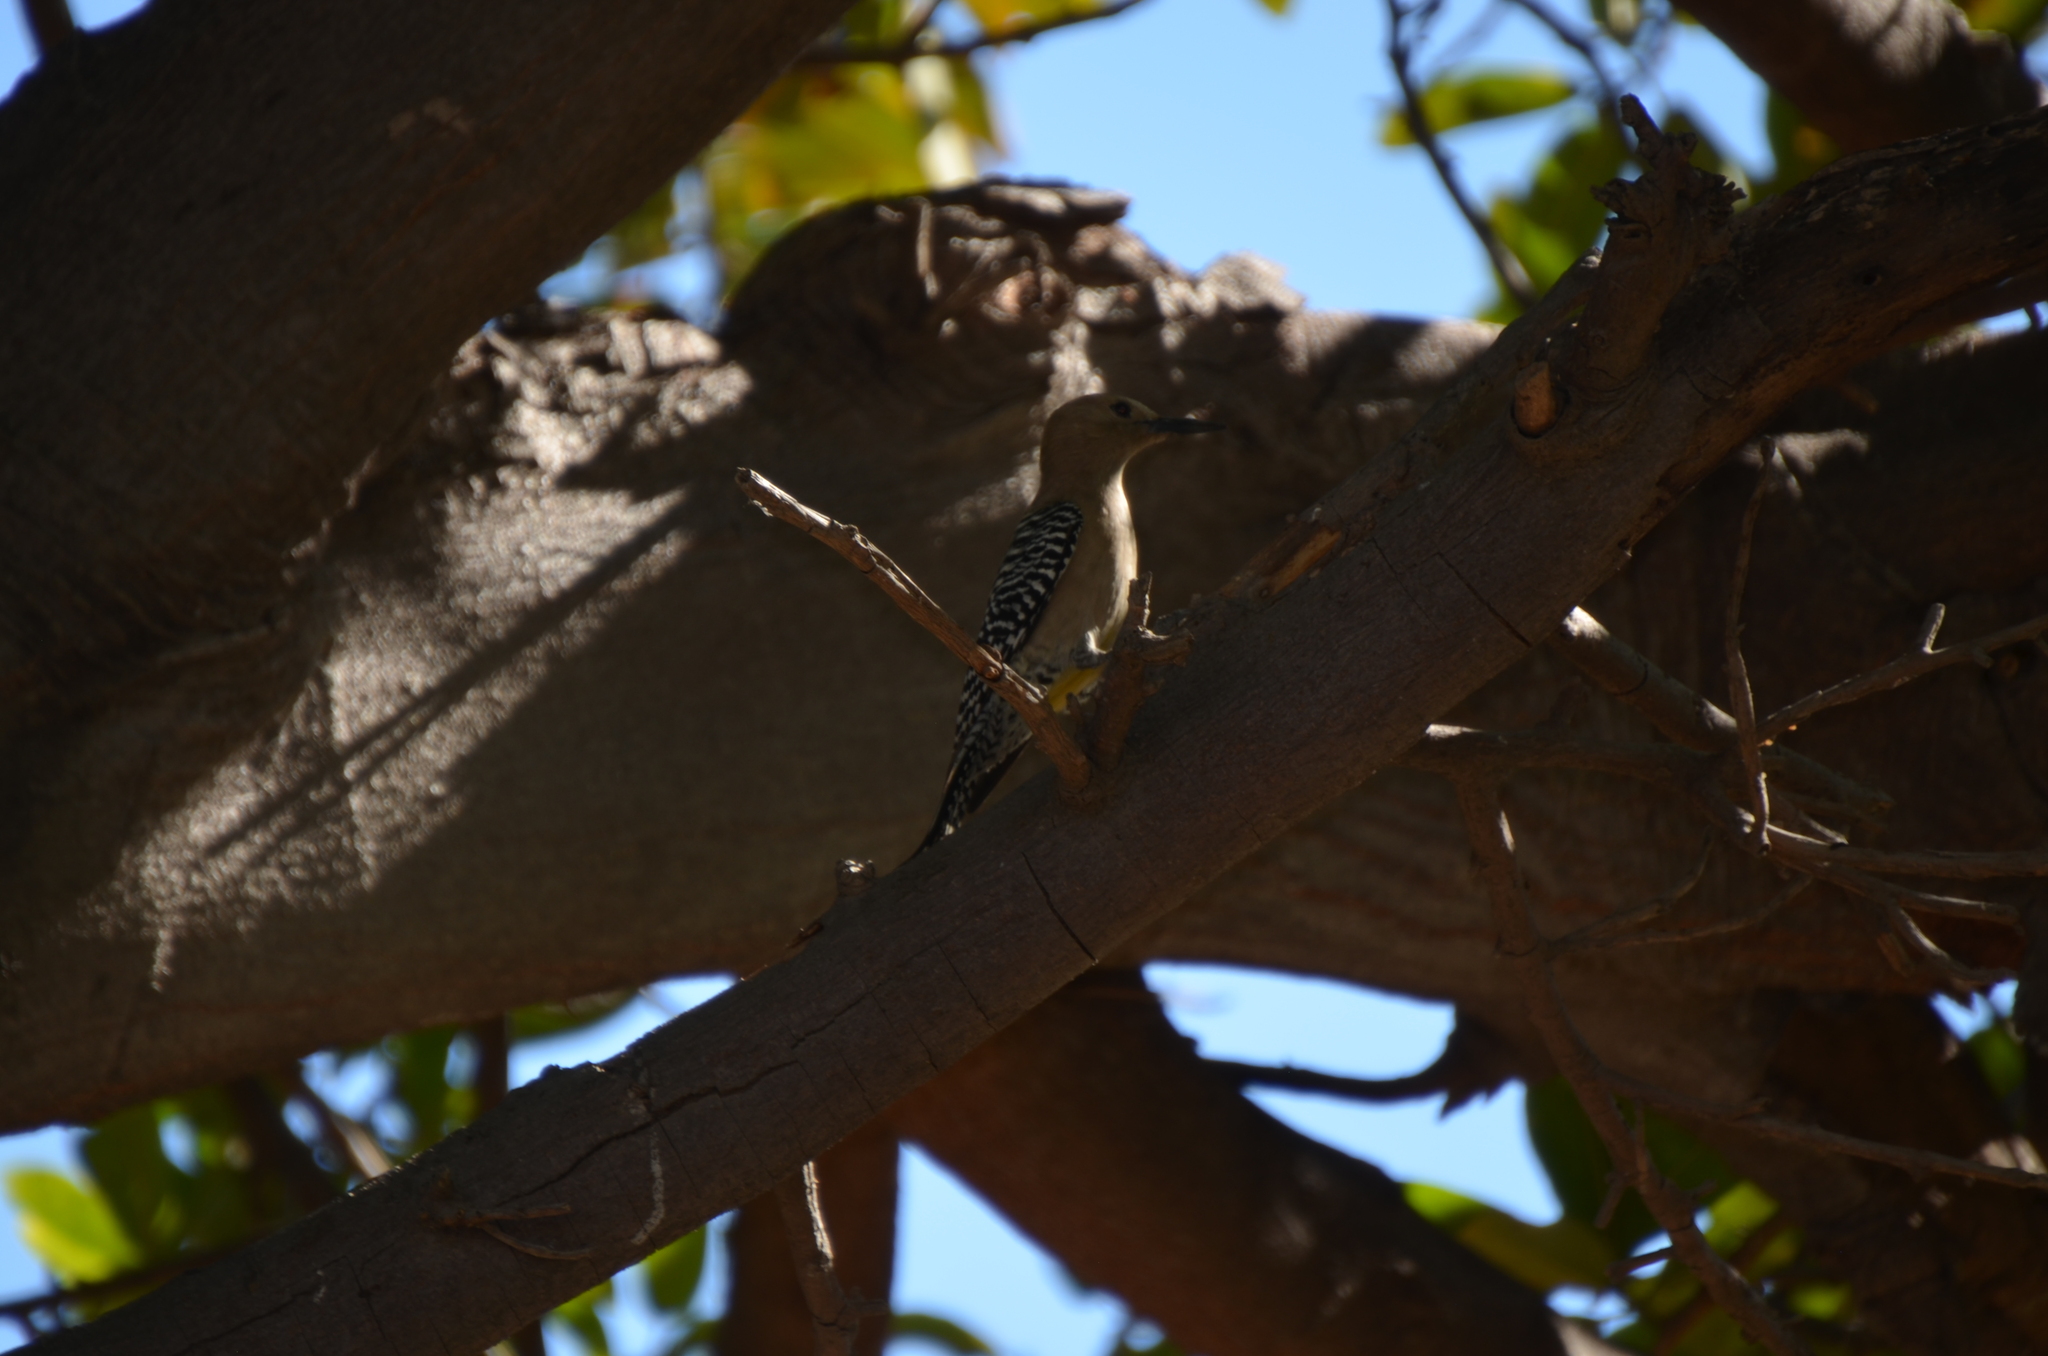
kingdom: Animalia
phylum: Chordata
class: Aves
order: Piciformes
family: Picidae
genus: Melanerpes
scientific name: Melanerpes uropygialis
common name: Gila woodpecker
